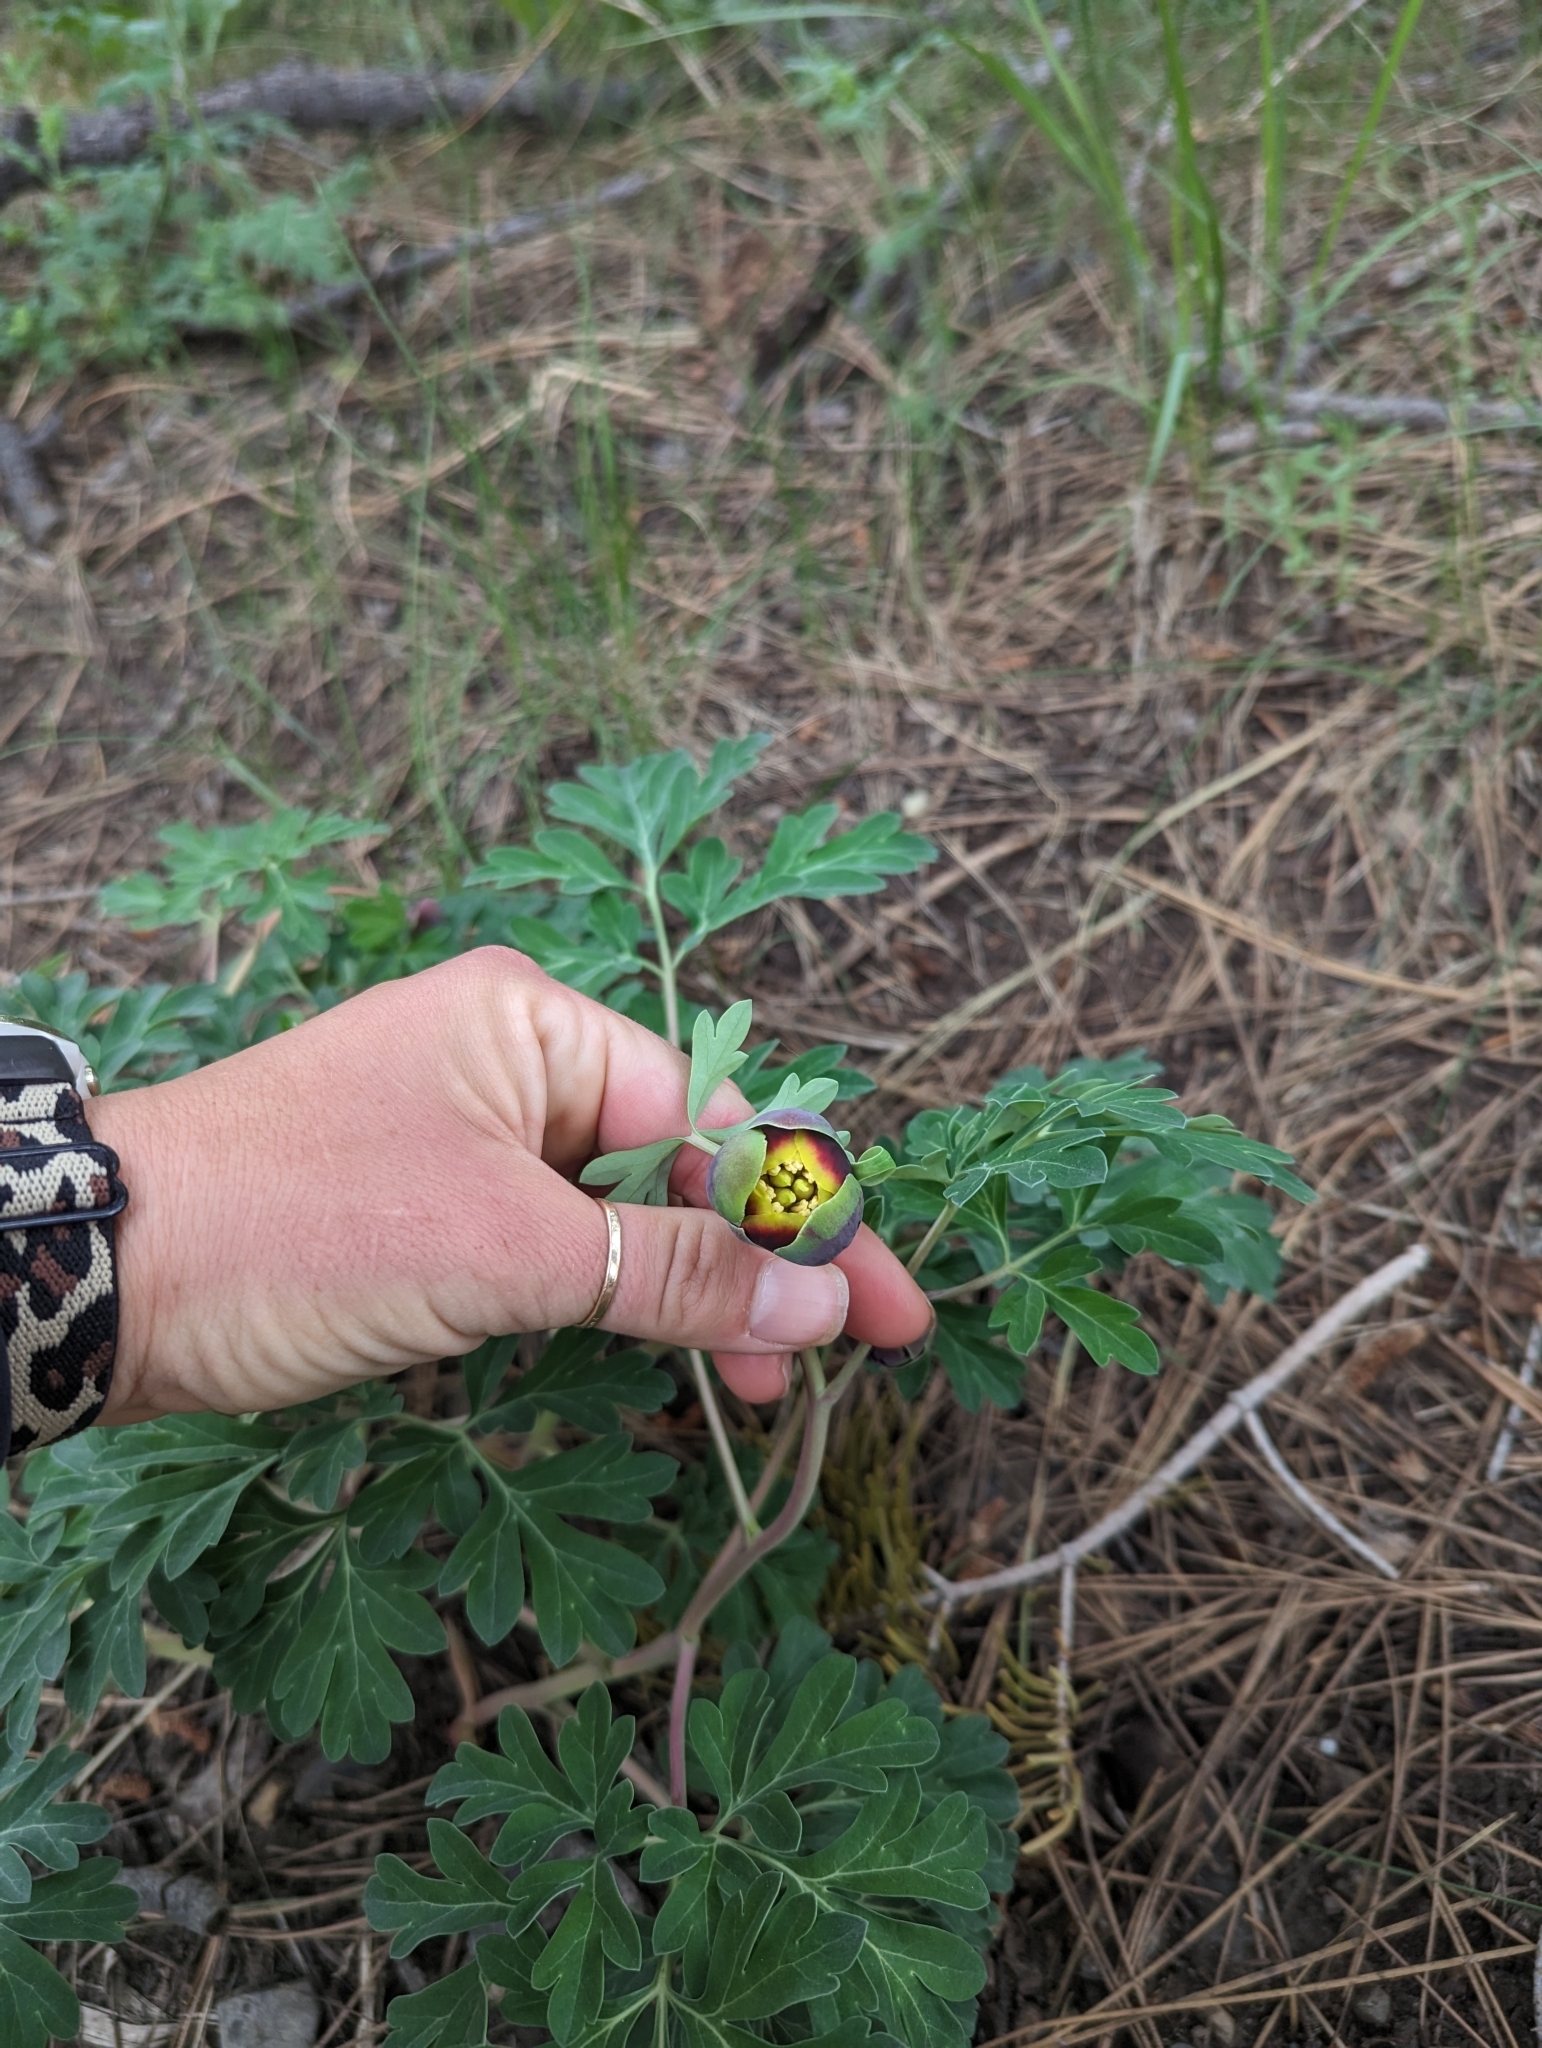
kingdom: Plantae
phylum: Tracheophyta
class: Magnoliopsida
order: Saxifragales
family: Paeoniaceae
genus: Paeonia
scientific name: Paeonia brownii
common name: Brown's peony
